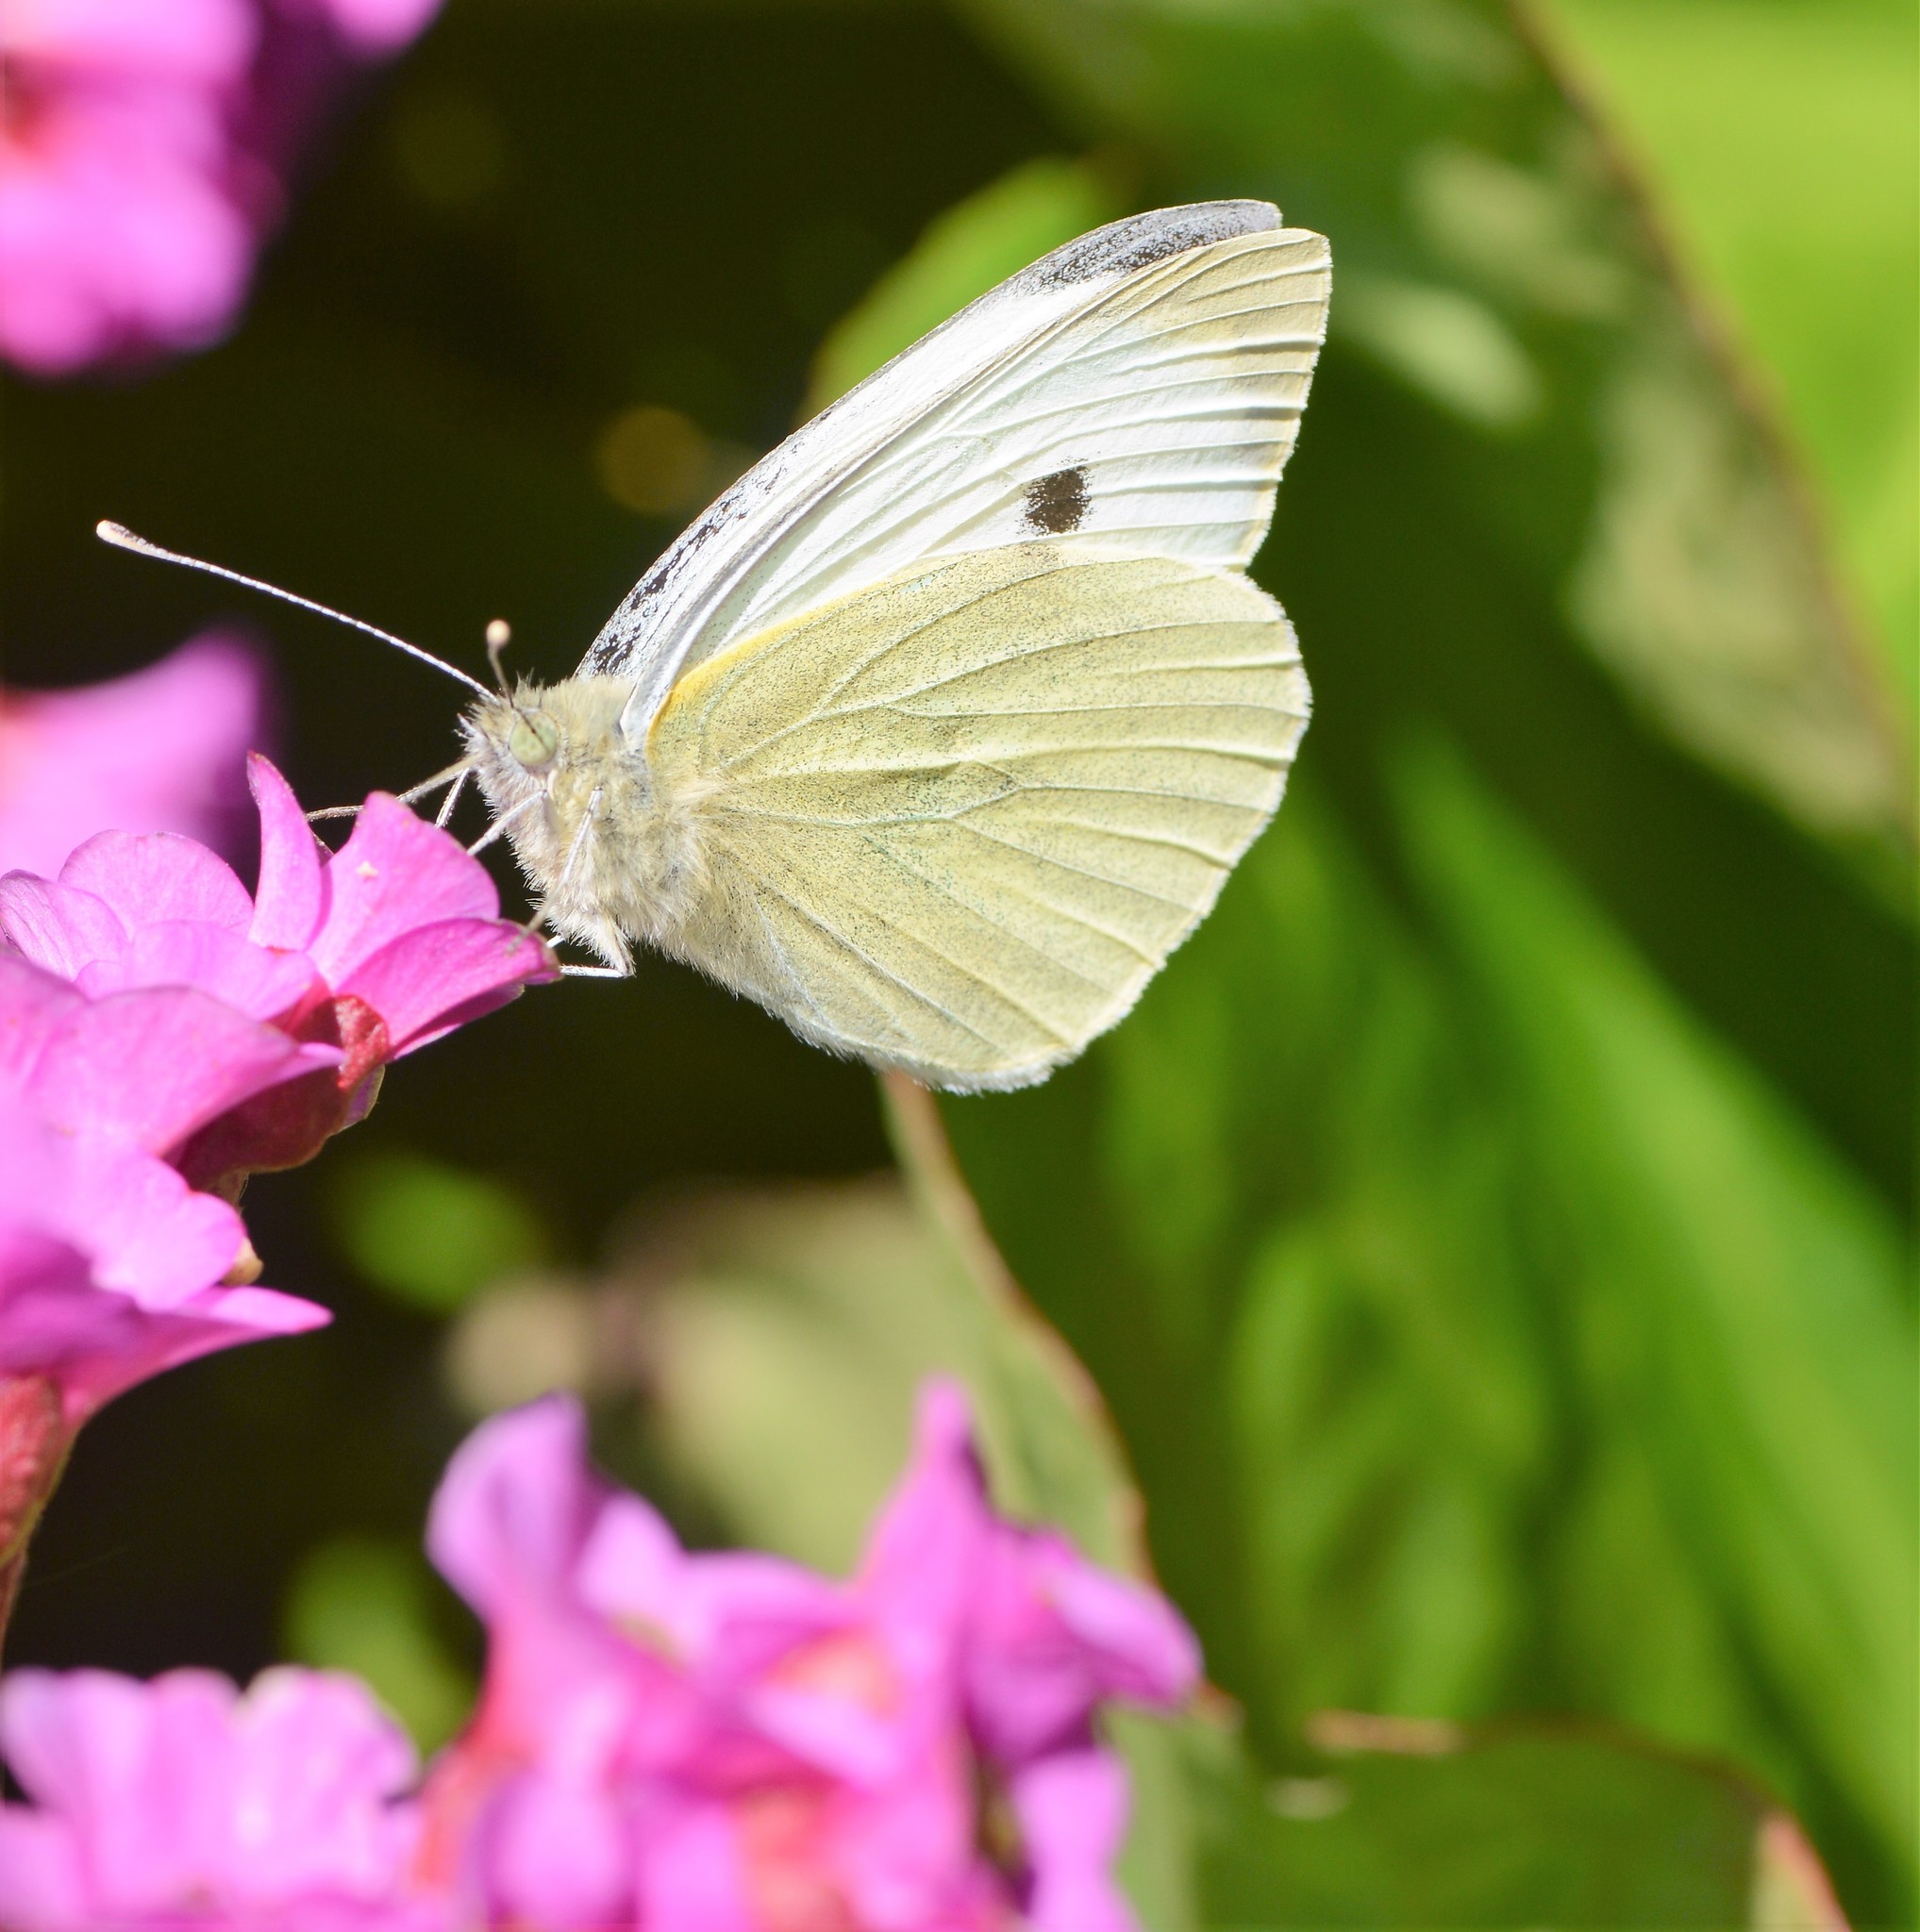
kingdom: Animalia
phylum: Arthropoda
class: Insecta
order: Lepidoptera
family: Pieridae
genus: Pieris
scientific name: Pieris brassicae
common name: Large white
